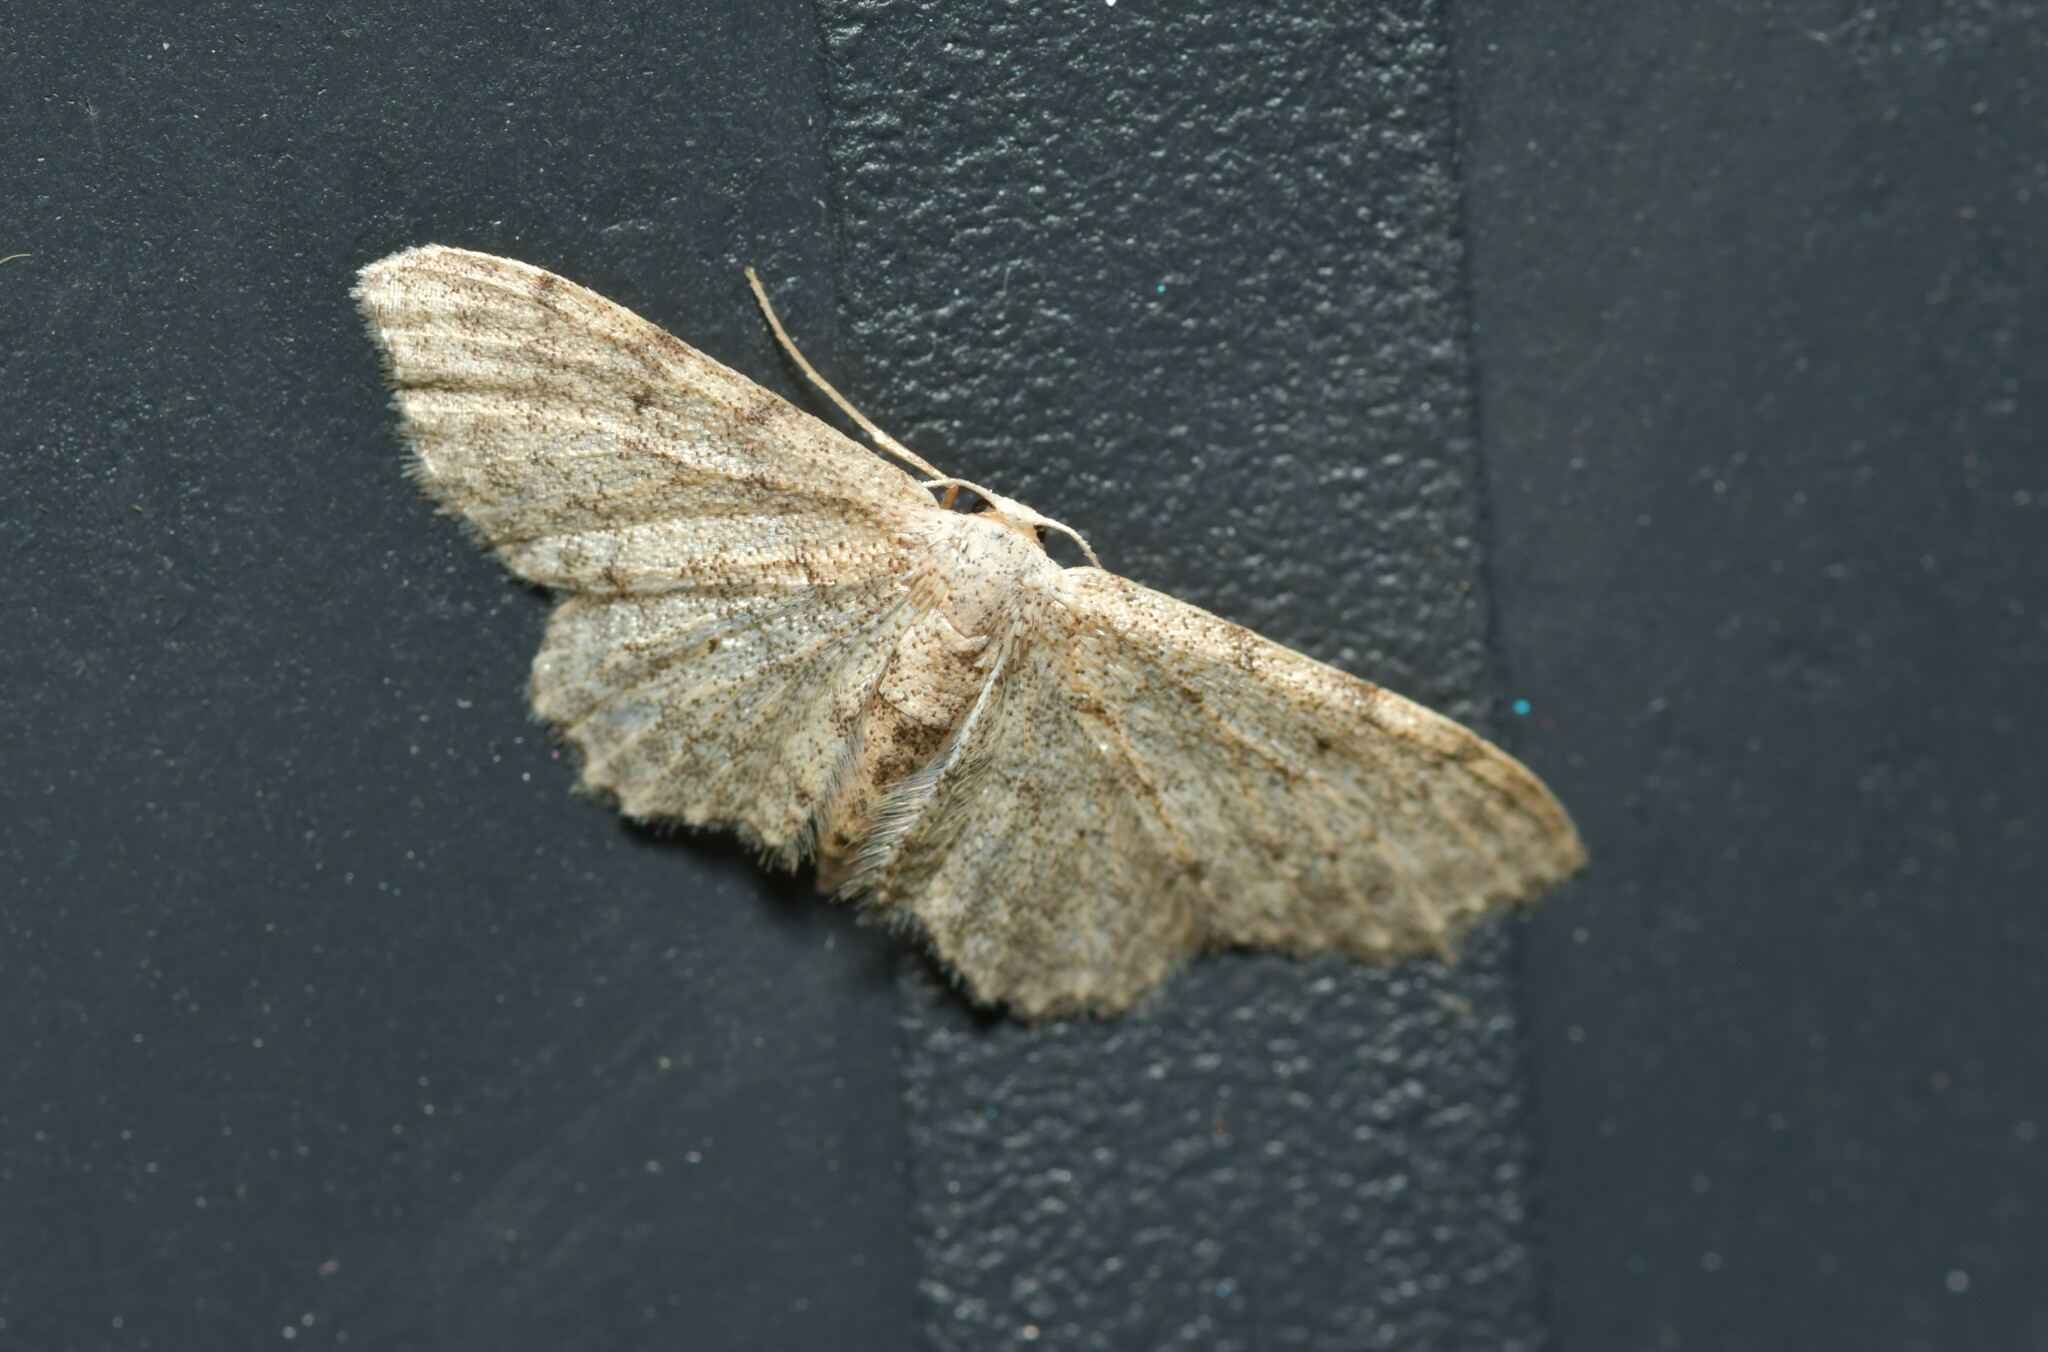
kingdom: Animalia
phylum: Arthropoda
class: Insecta
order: Lepidoptera
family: Geometridae
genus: Idaea
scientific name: Idaea incisaria
